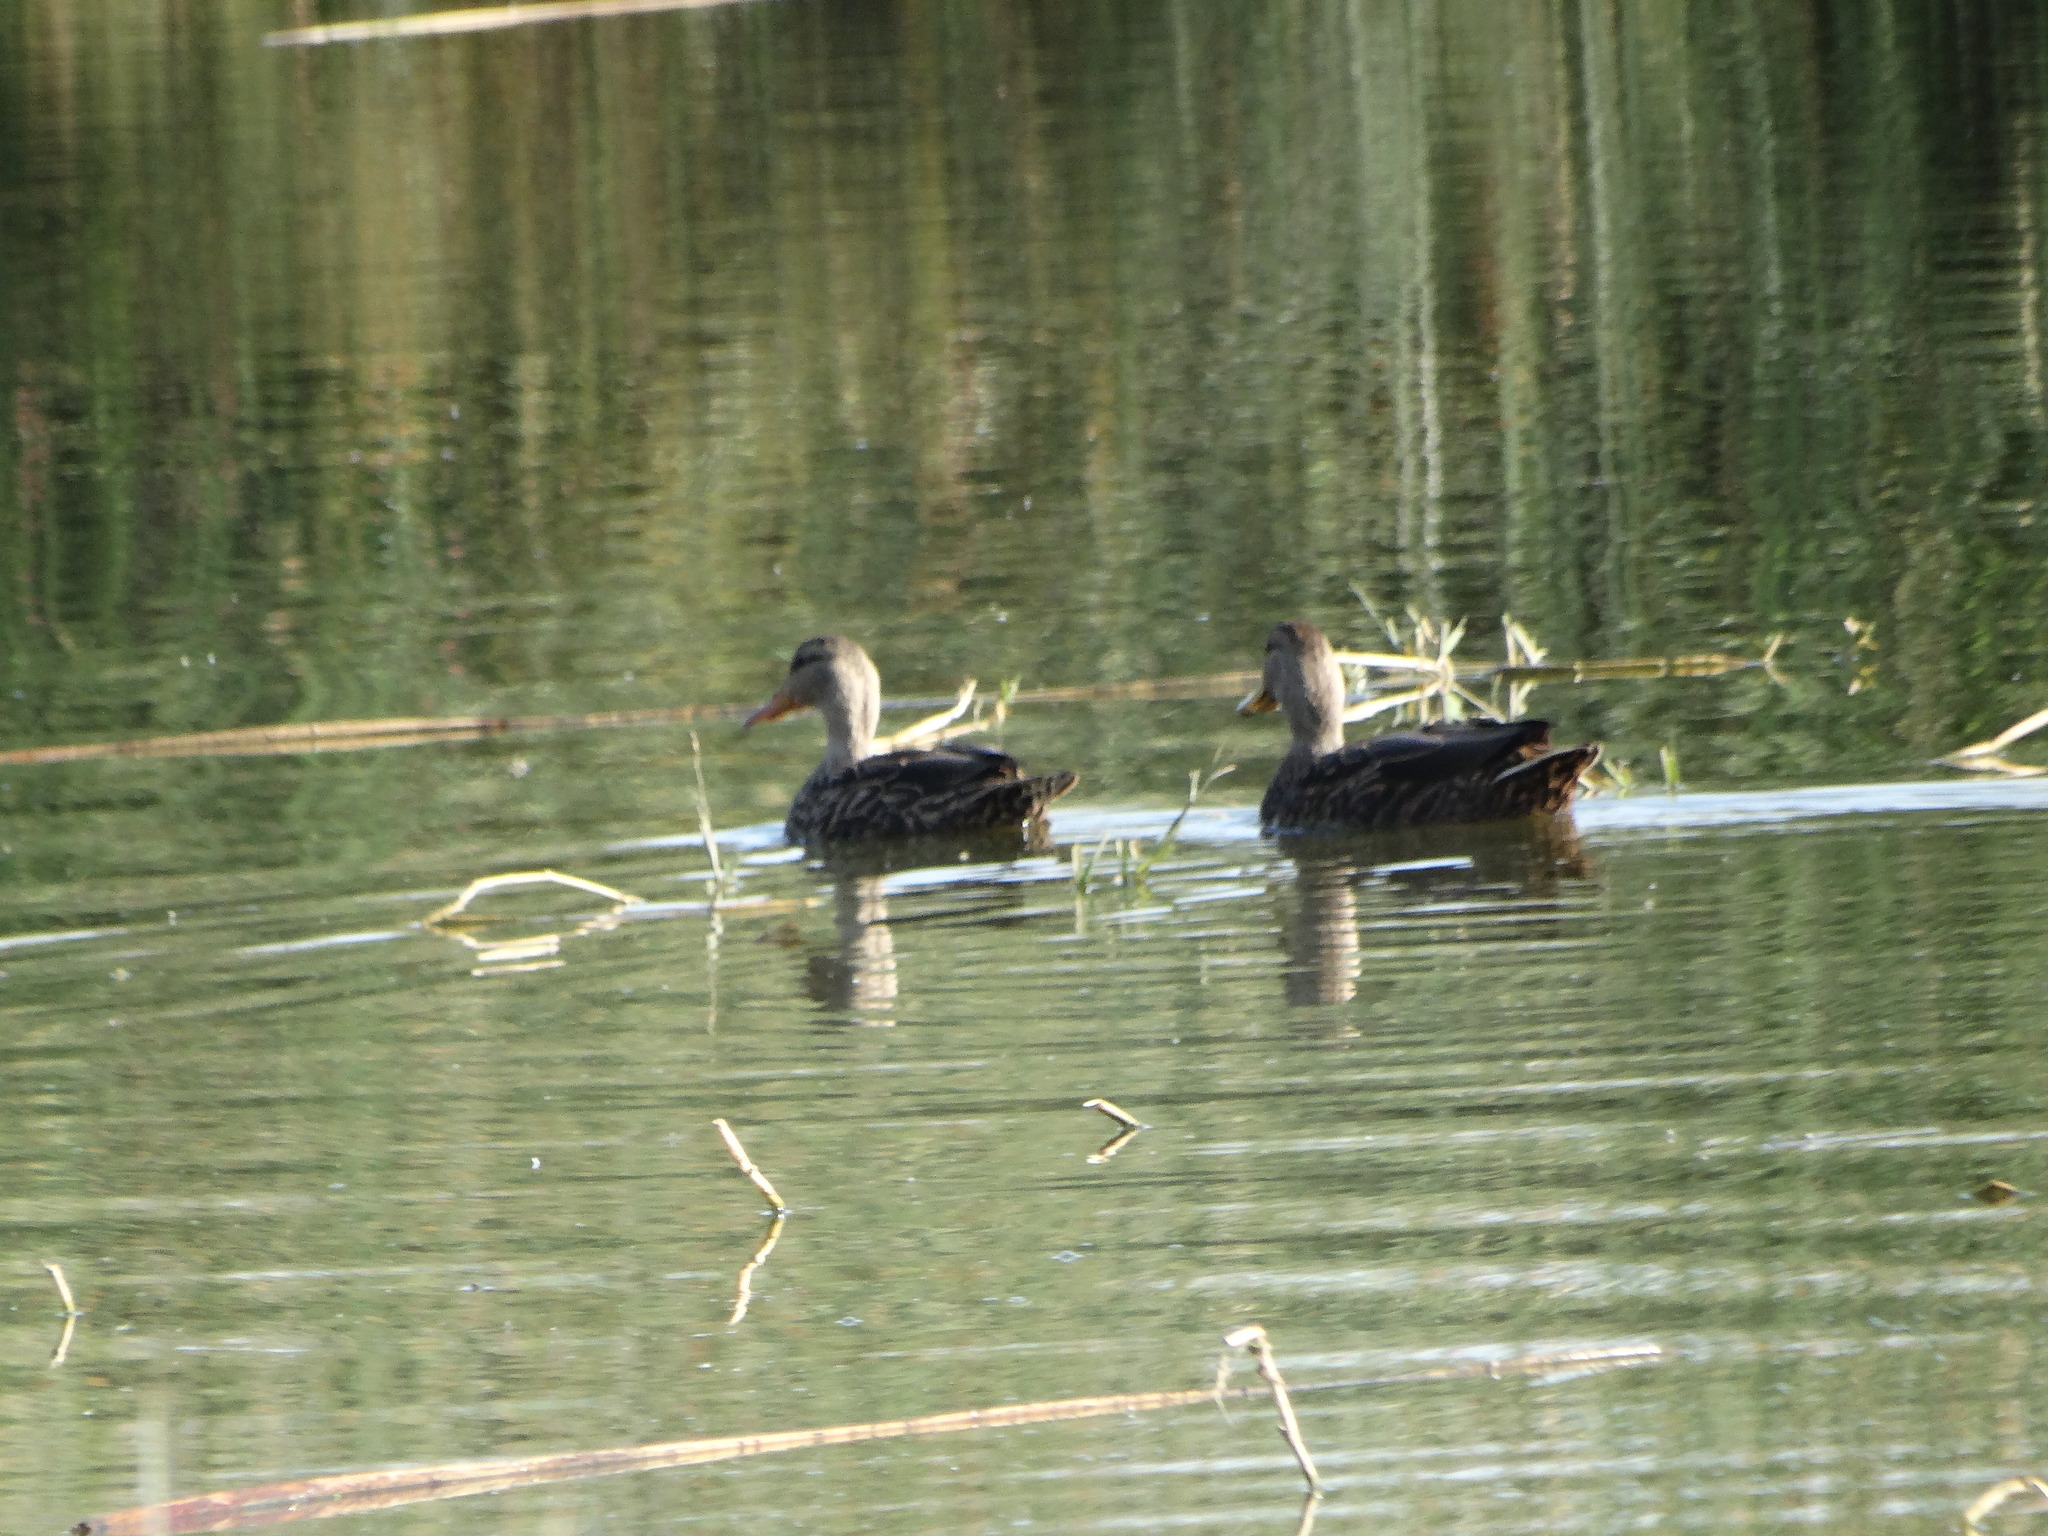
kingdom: Animalia
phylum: Chordata
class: Aves
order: Anseriformes
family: Anatidae
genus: Anas
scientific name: Anas diazi
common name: Mexican duck
